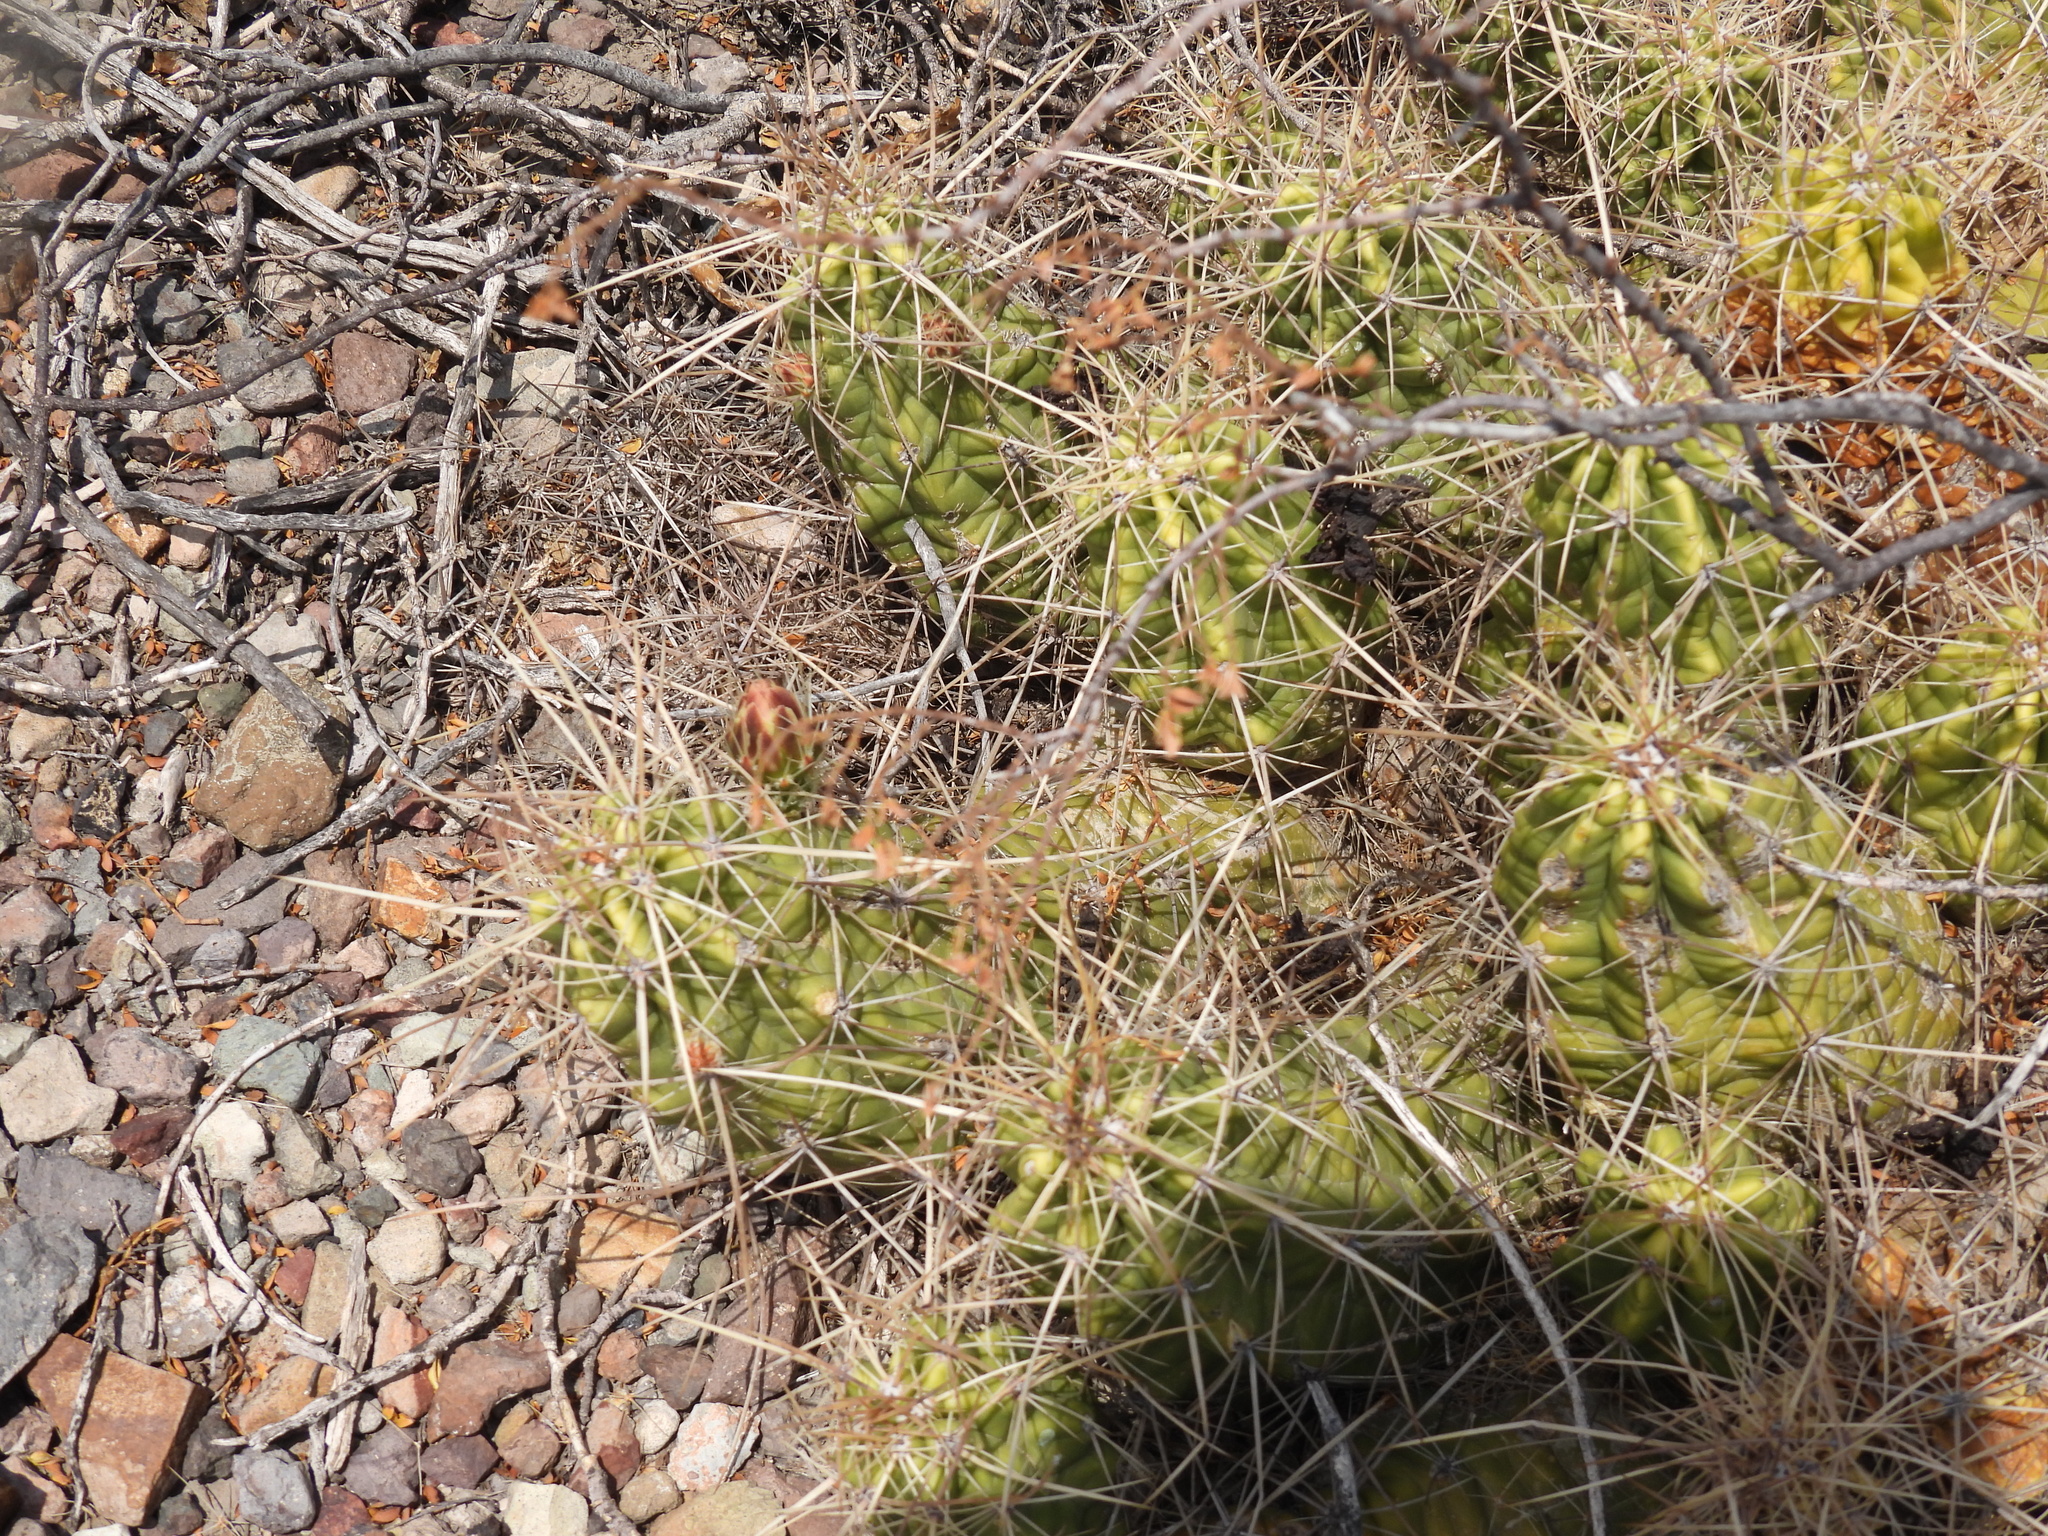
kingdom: Plantae
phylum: Tracheophyta
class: Magnoliopsida
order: Caryophyllales
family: Cactaceae
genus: Echinocereus
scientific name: Echinocereus enneacanthus
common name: Pitaya
